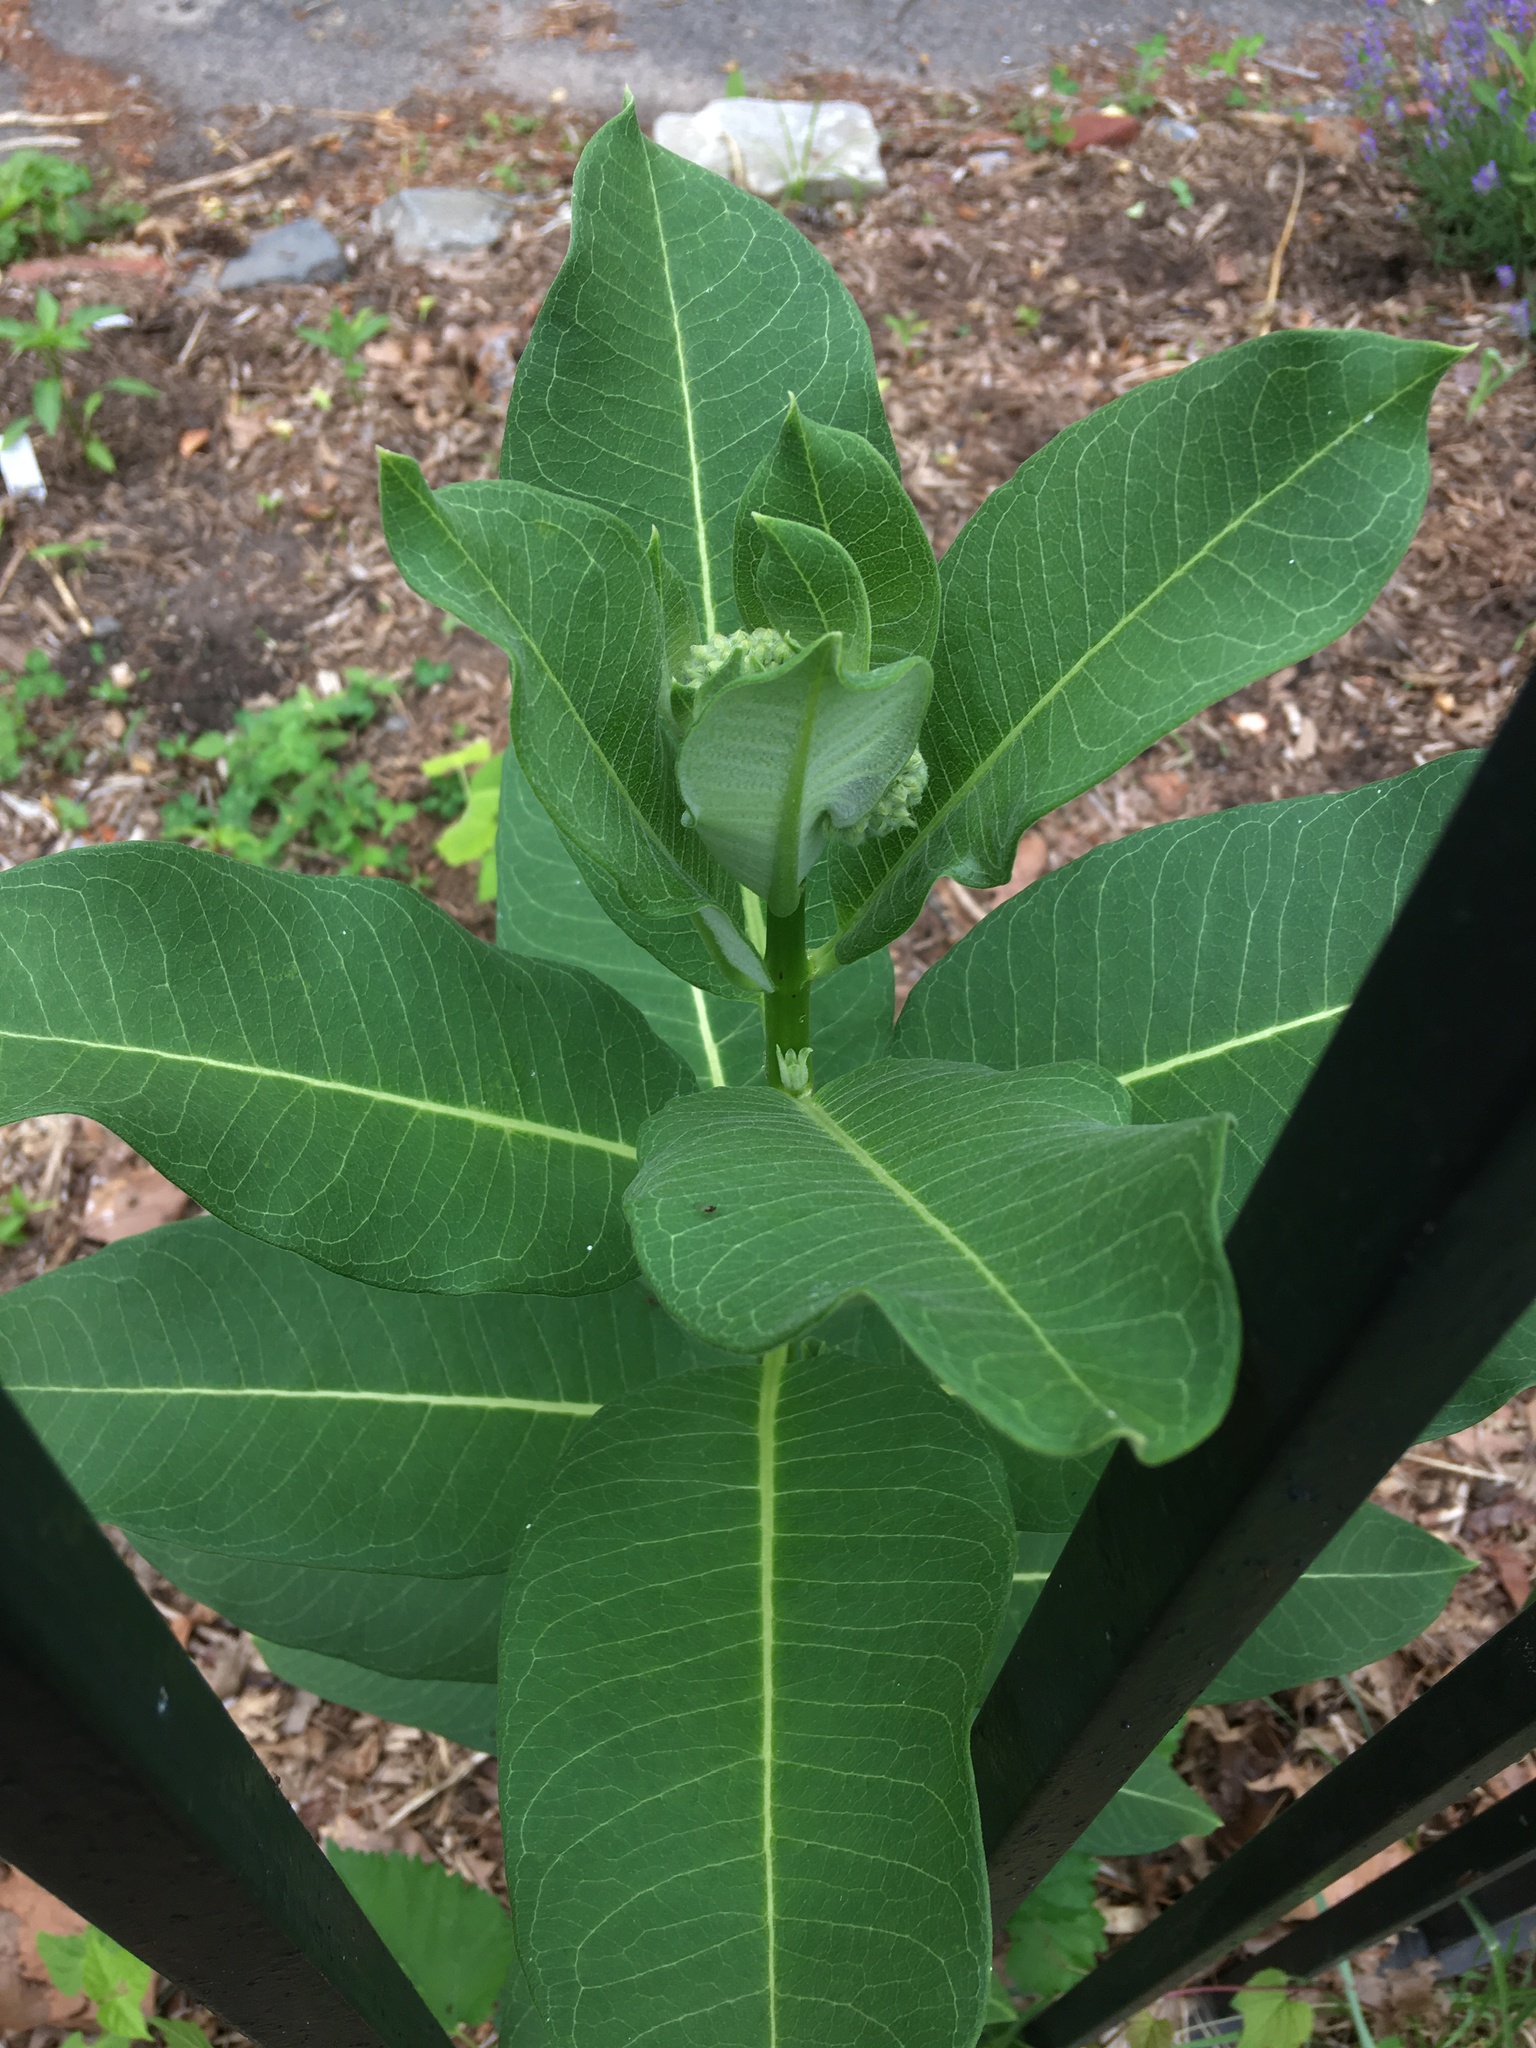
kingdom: Plantae
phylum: Tracheophyta
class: Magnoliopsida
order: Gentianales
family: Apocynaceae
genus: Asclepias
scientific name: Asclepias syriaca
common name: Common milkweed
